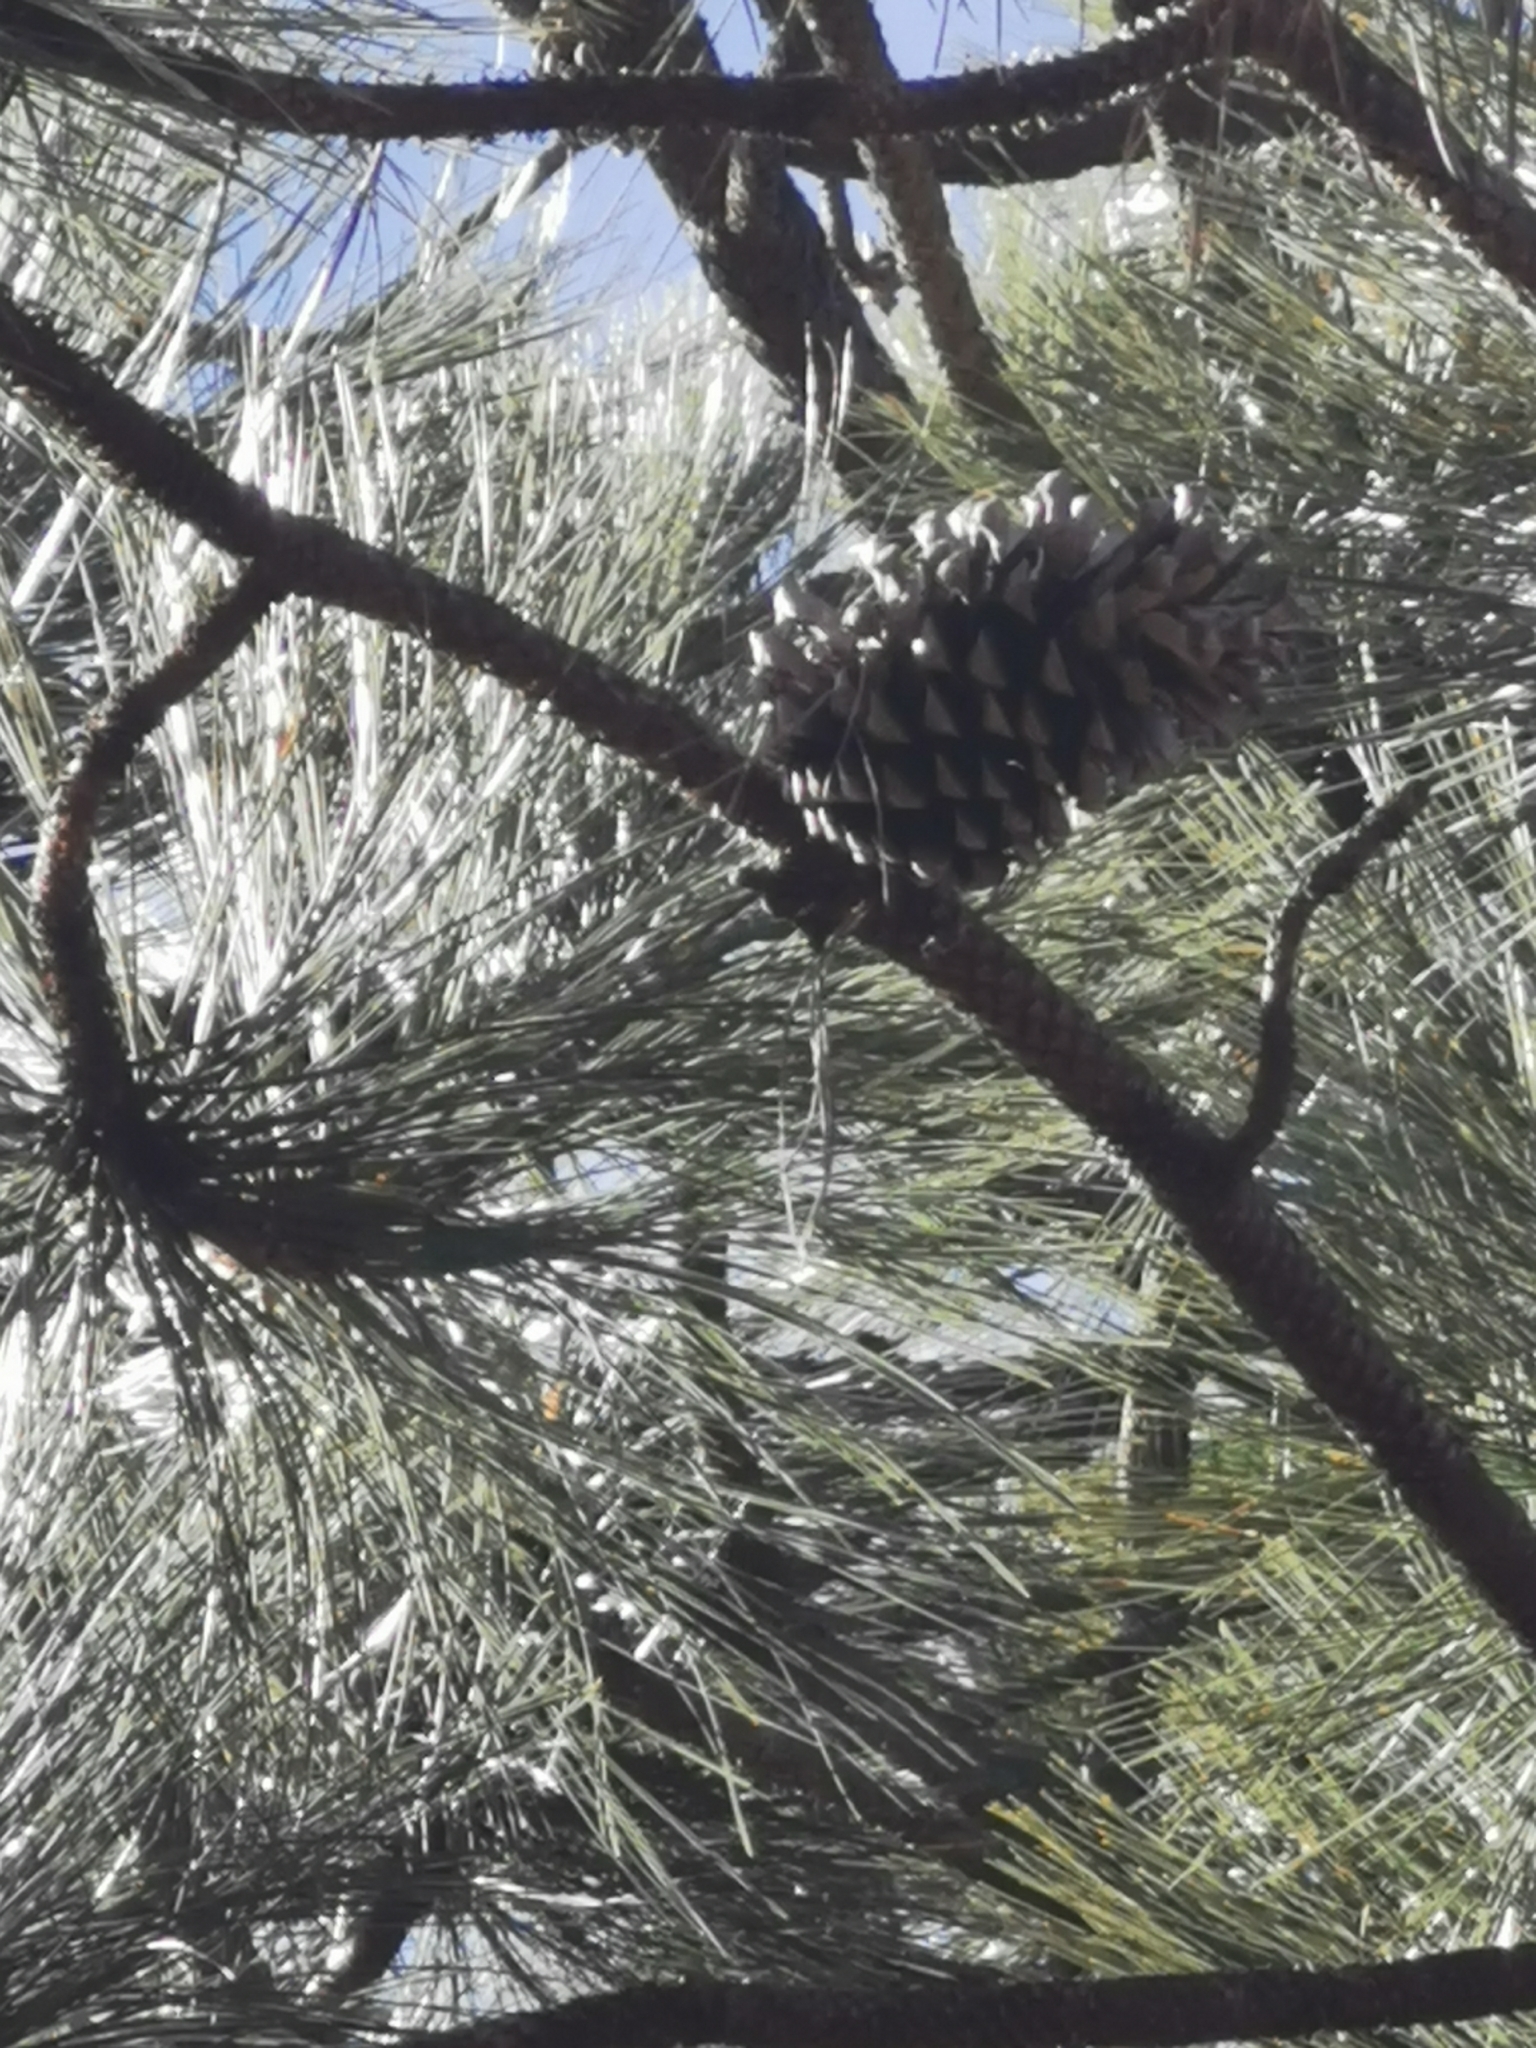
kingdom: Plantae
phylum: Tracheophyta
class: Pinopsida
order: Pinales
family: Pinaceae
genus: Pinus
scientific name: Pinus engelmannii
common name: Apache pine
